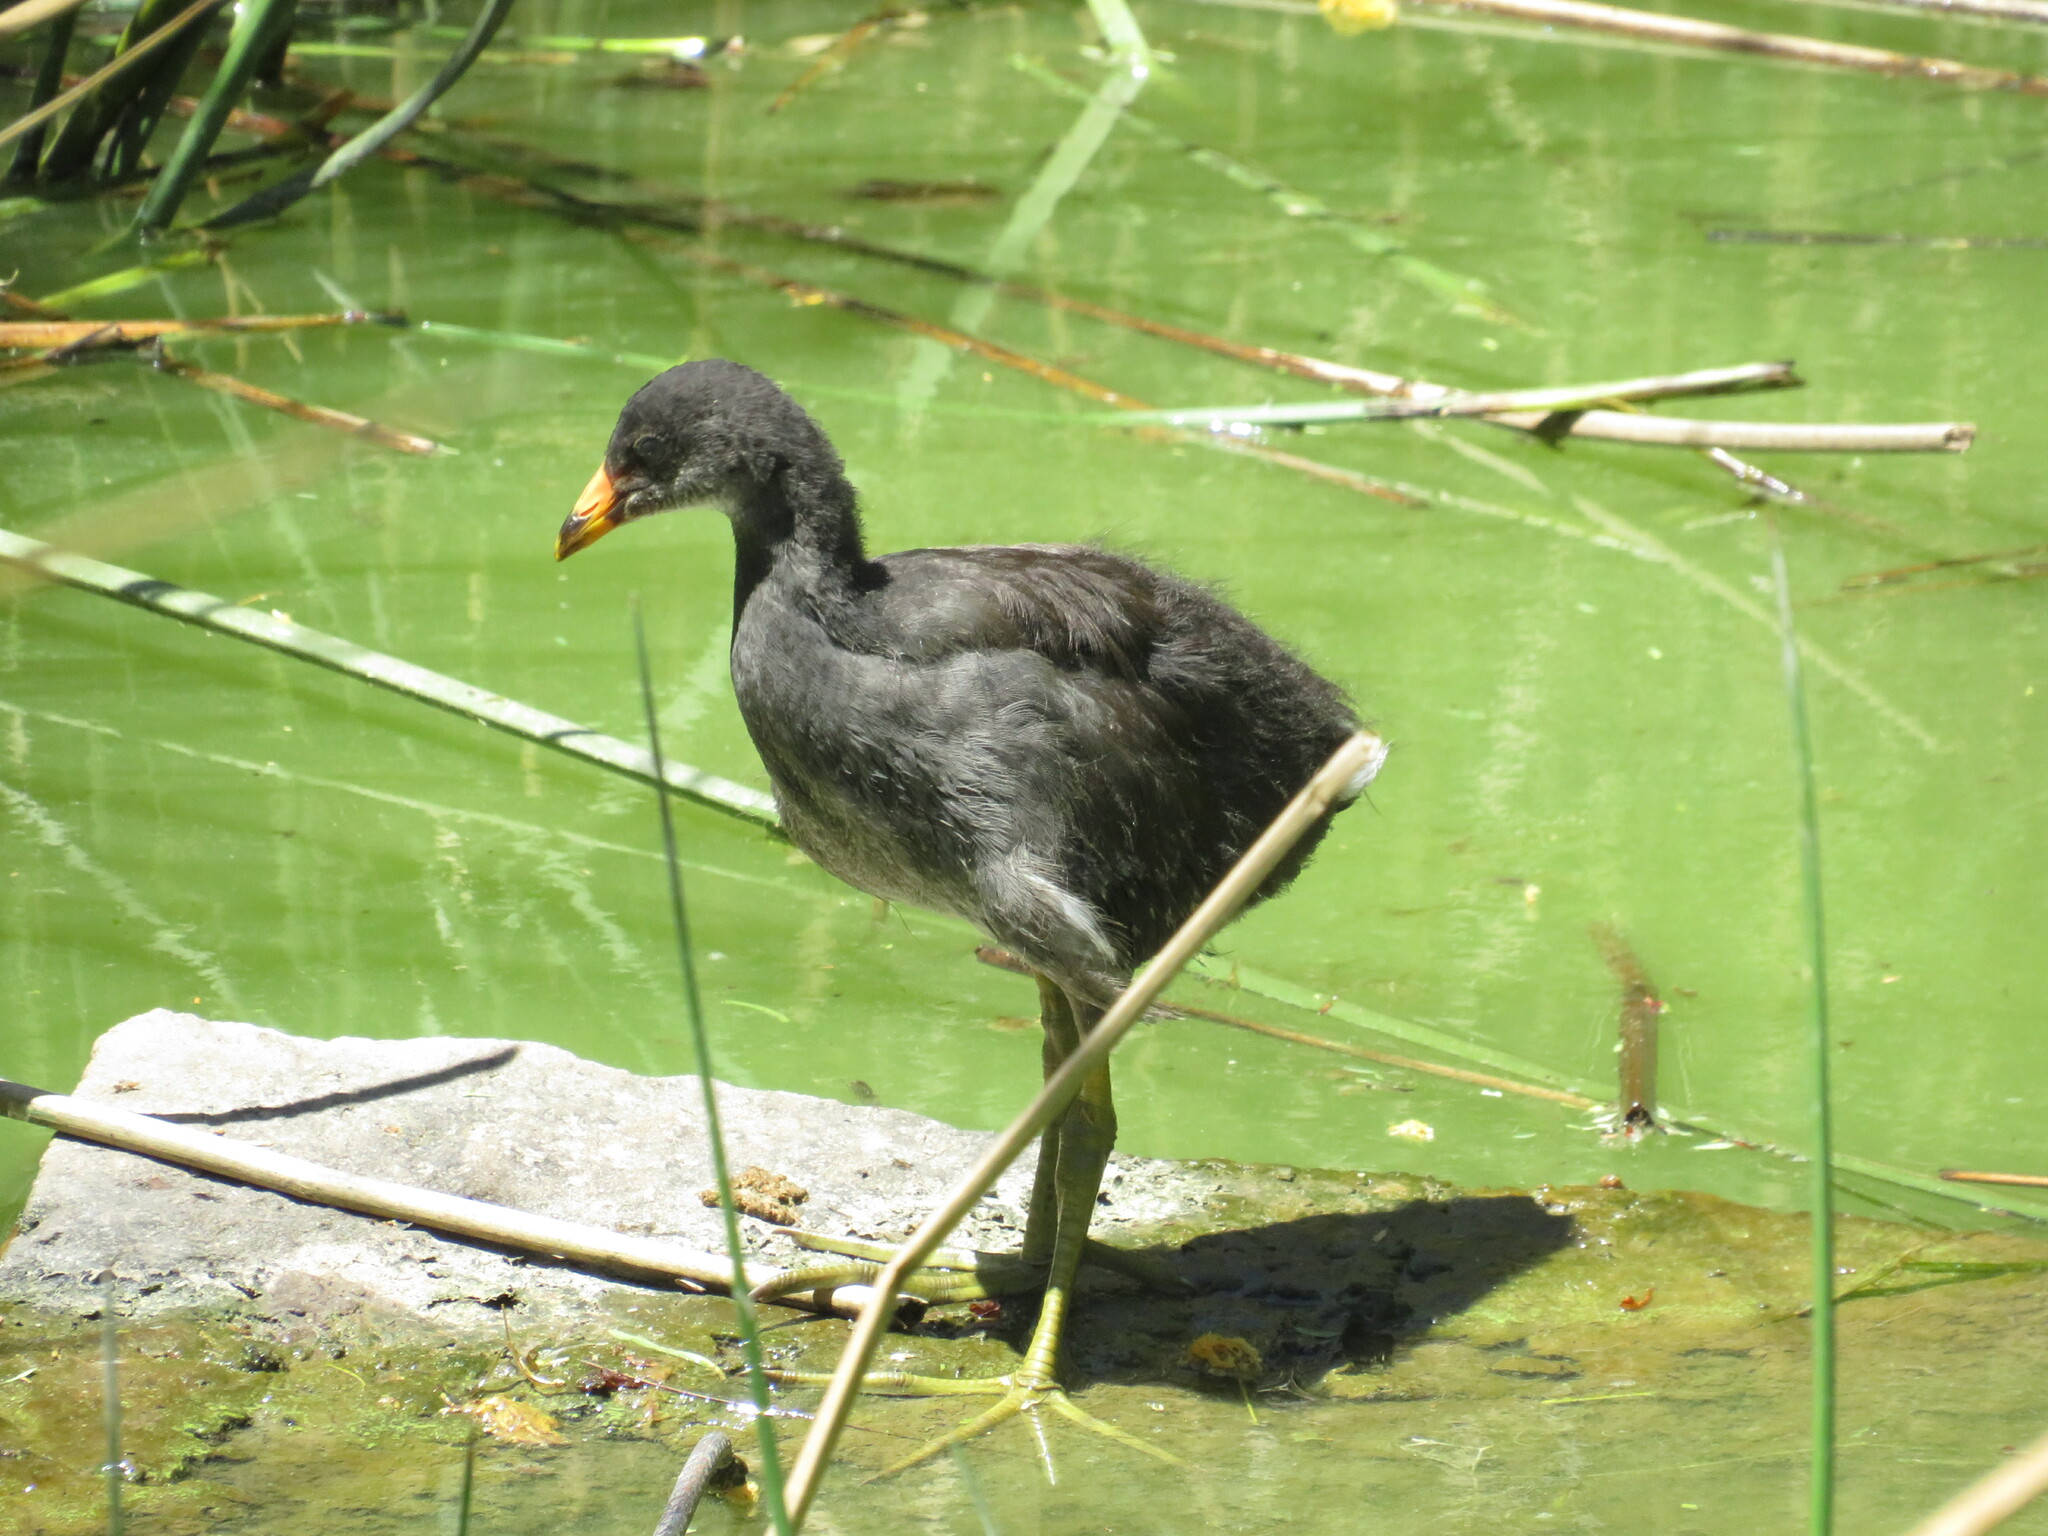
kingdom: Animalia
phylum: Chordata
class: Aves
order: Gruiformes
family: Rallidae
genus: Gallinula
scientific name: Gallinula chloropus
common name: Common moorhen
